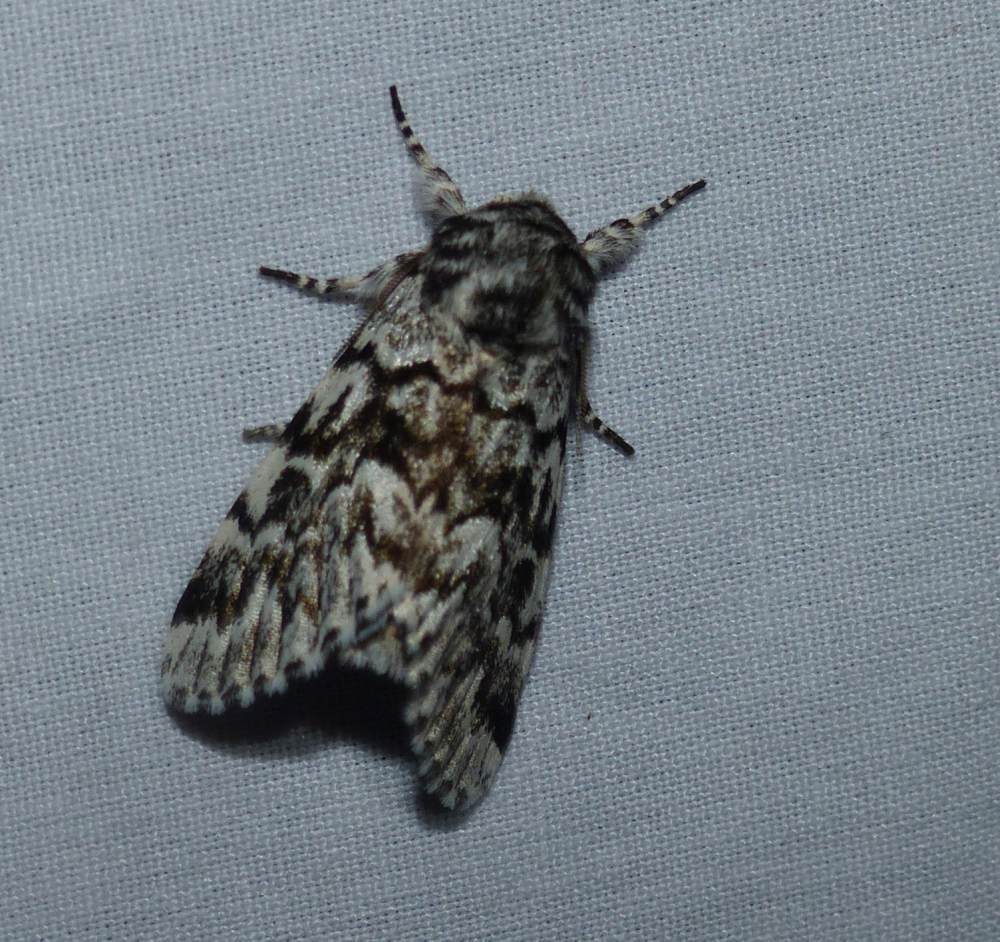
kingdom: Animalia
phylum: Arthropoda
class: Insecta
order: Lepidoptera
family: Noctuidae
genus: Panthea
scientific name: Panthea acronyctoides
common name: Black zigzag moth
